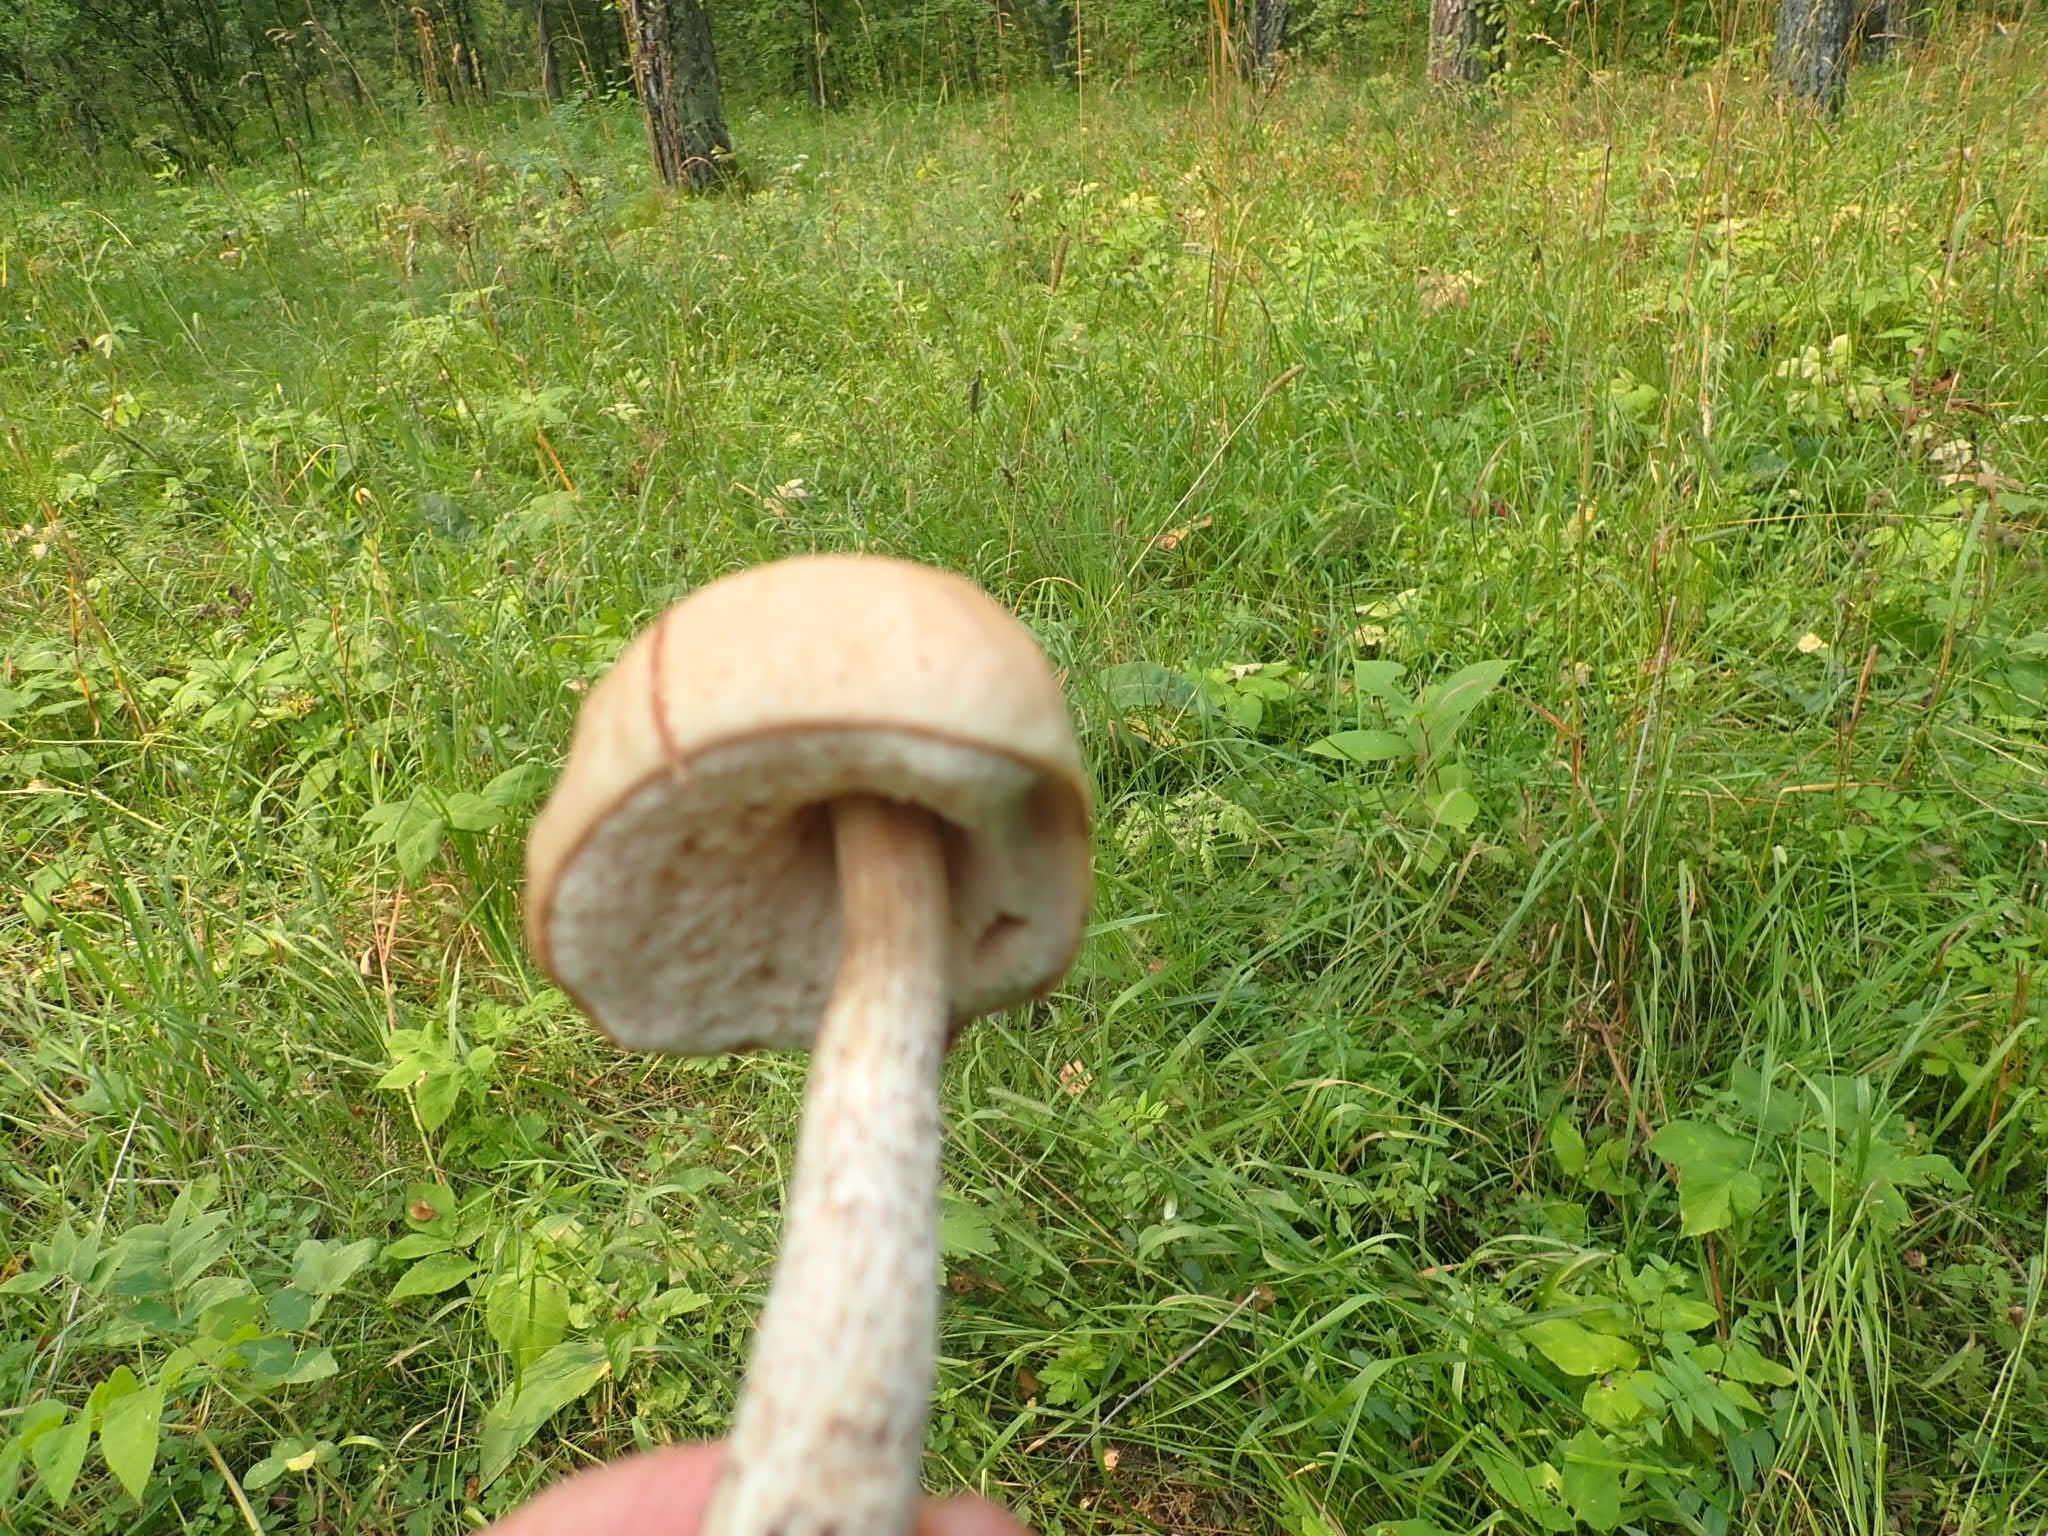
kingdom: Fungi
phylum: Basidiomycota
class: Agaricomycetes
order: Boletales
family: Boletaceae
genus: Leccinum
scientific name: Leccinum scabrum
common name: Blushing bolete
